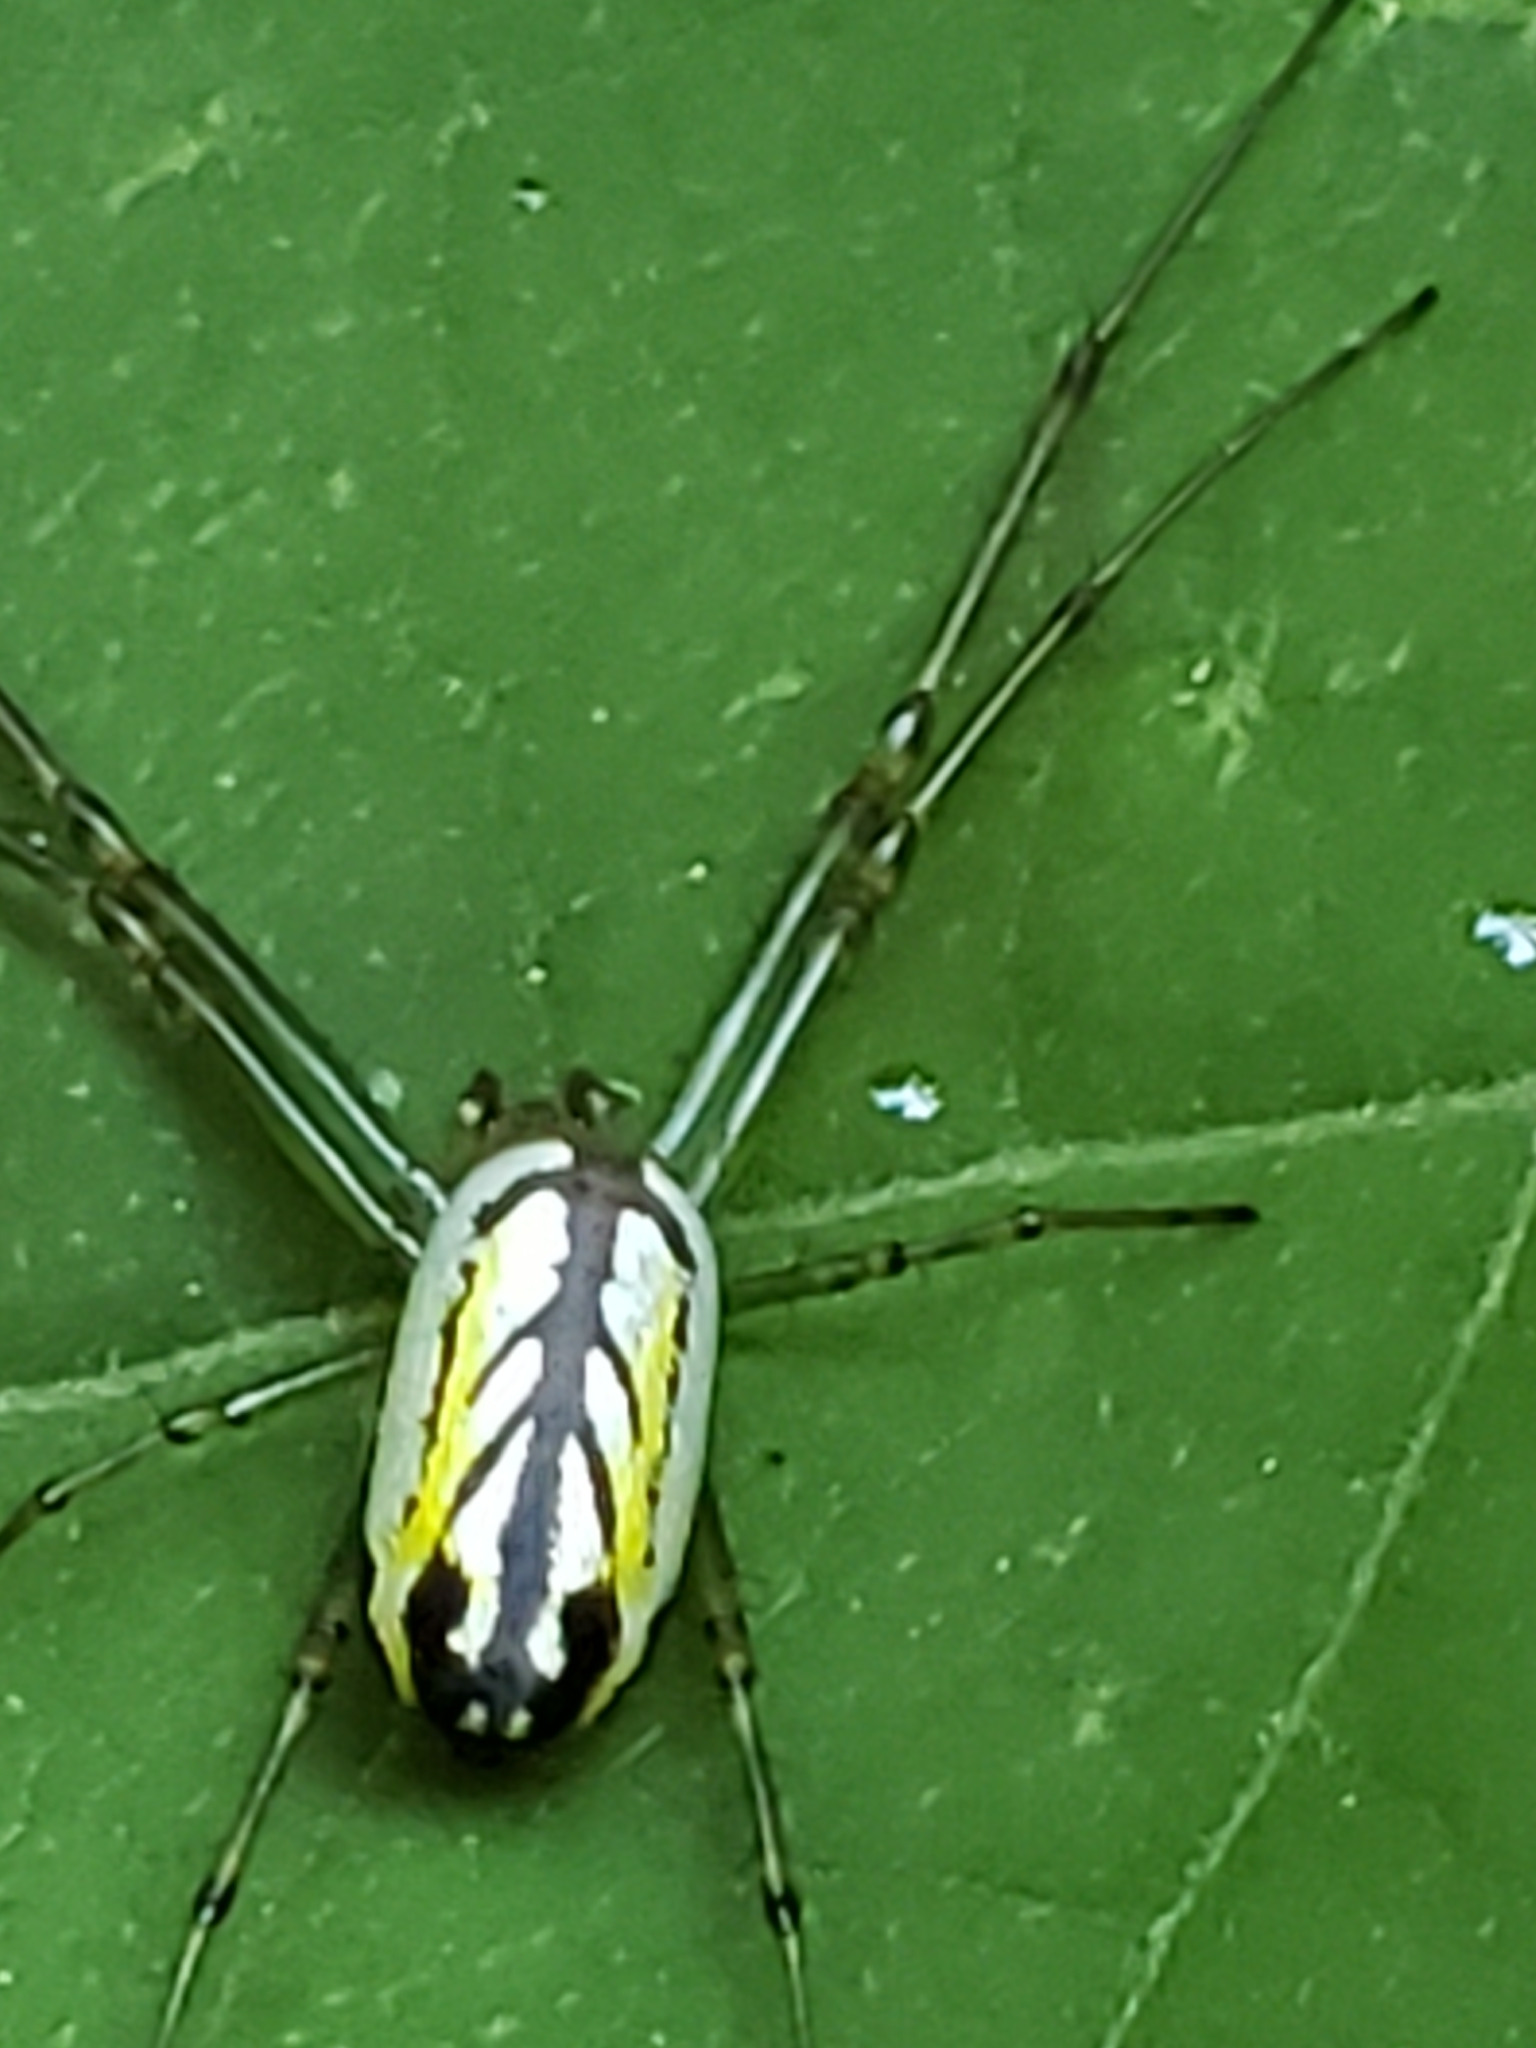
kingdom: Animalia
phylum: Arthropoda
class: Arachnida
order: Araneae
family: Tetragnathidae
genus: Leucauge
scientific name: Leucauge venusta
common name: Longjawed orb weavers
